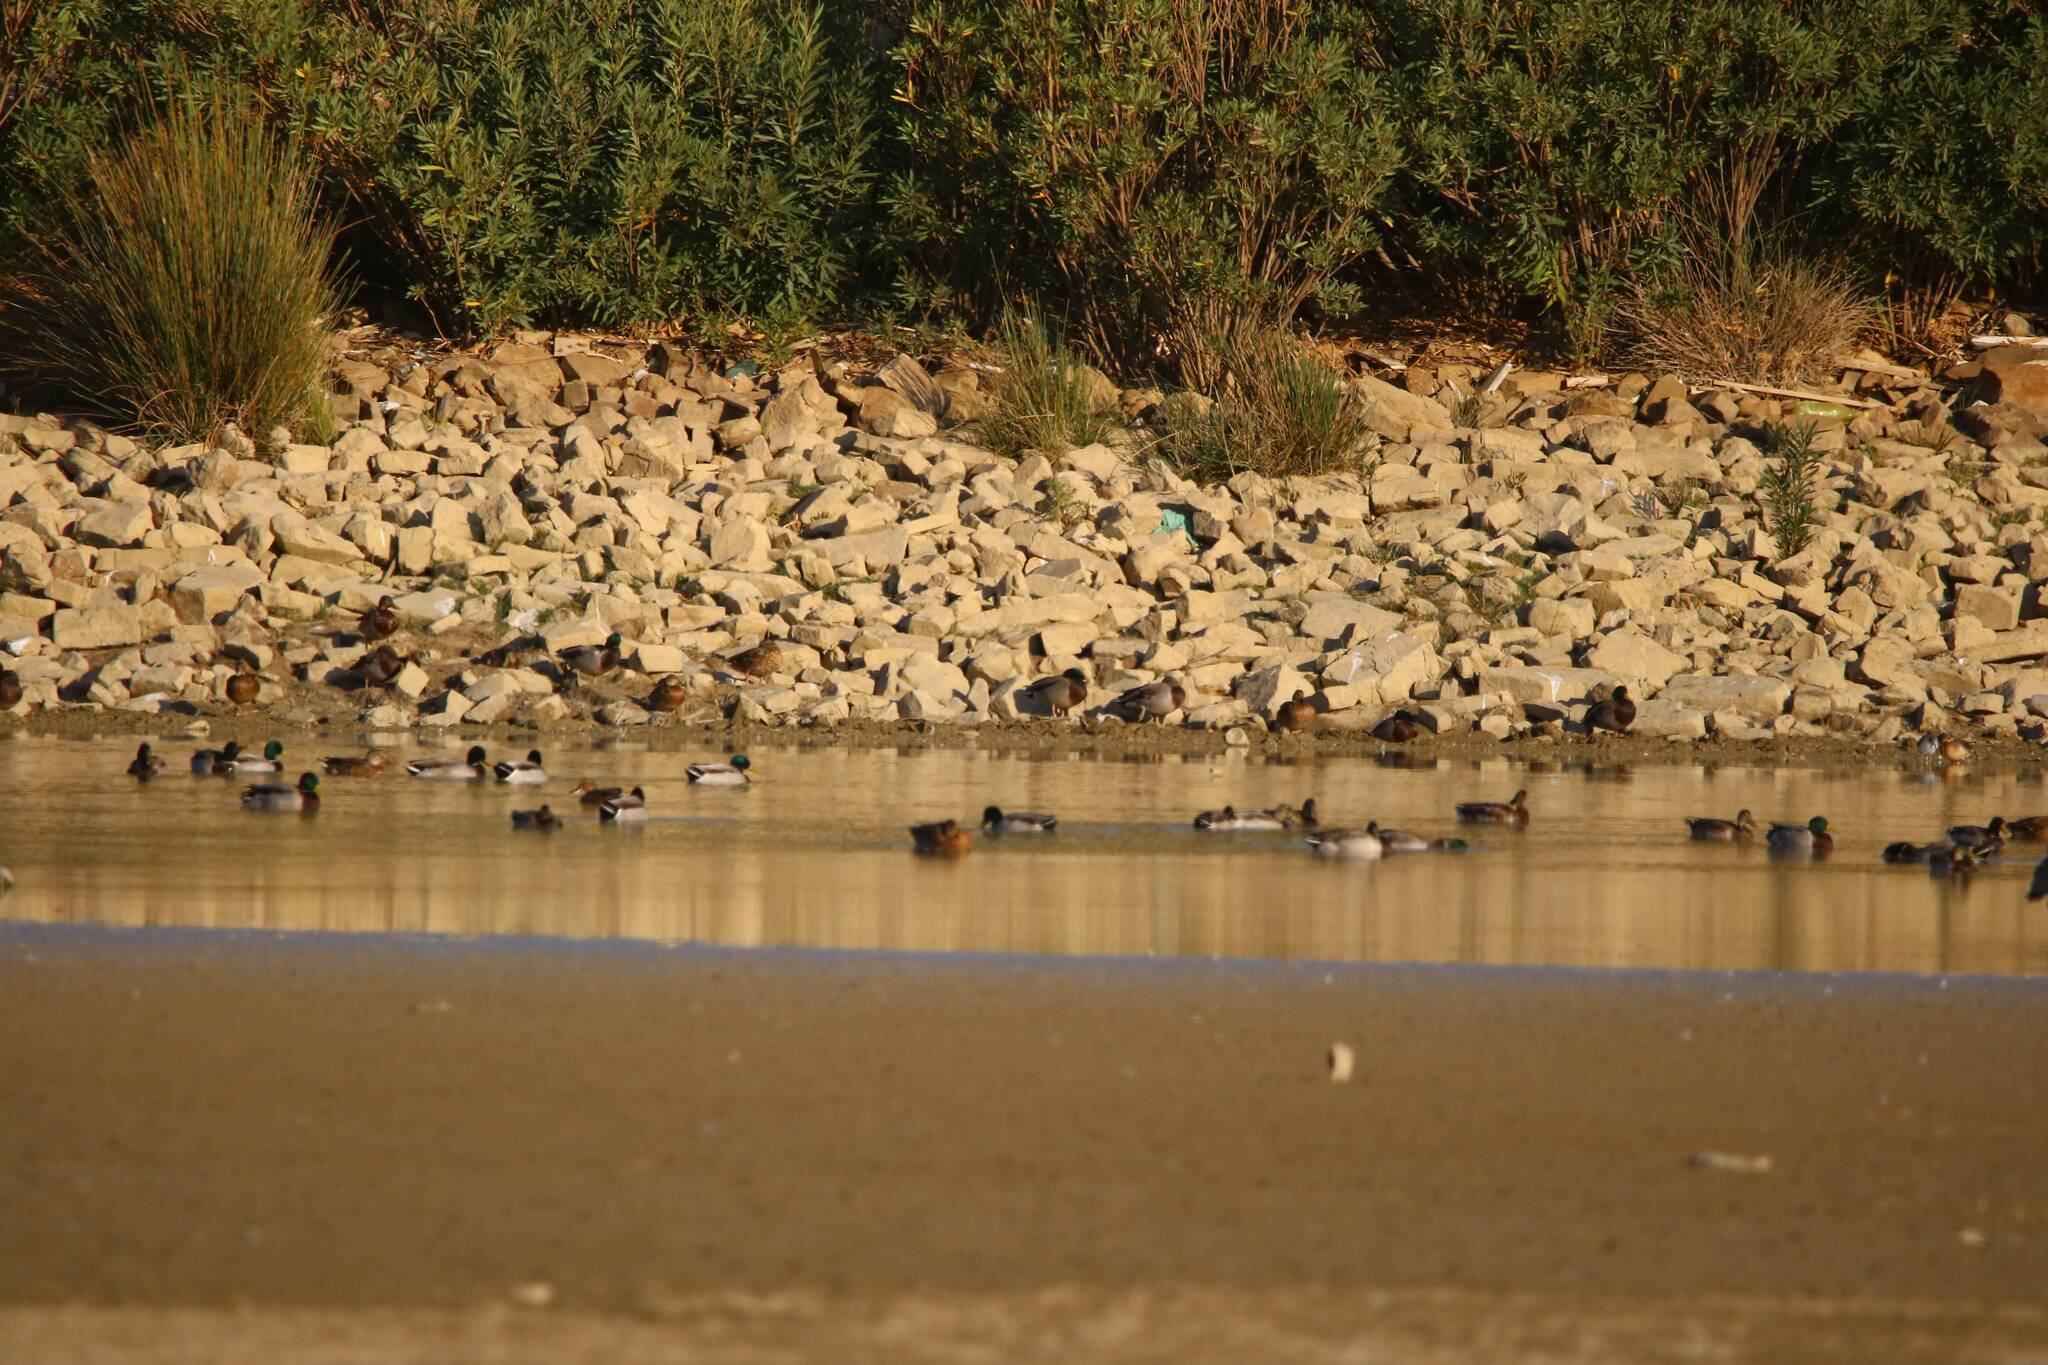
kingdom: Animalia
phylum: Chordata
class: Aves
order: Anseriformes
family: Anatidae
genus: Anas
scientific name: Anas platyrhynchos
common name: Mallard
